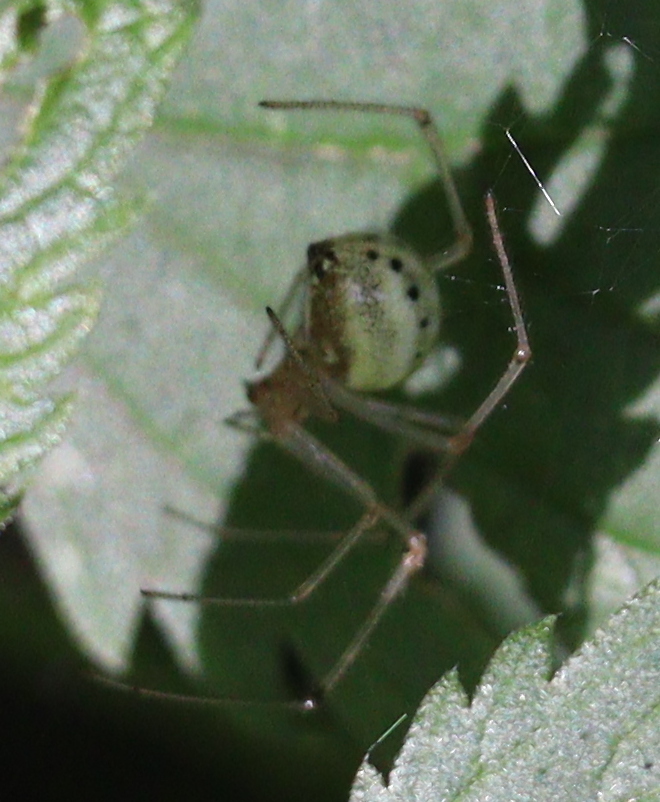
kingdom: Animalia
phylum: Arthropoda
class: Arachnida
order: Araneae
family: Theridiidae
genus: Enoplognatha
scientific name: Enoplognatha
